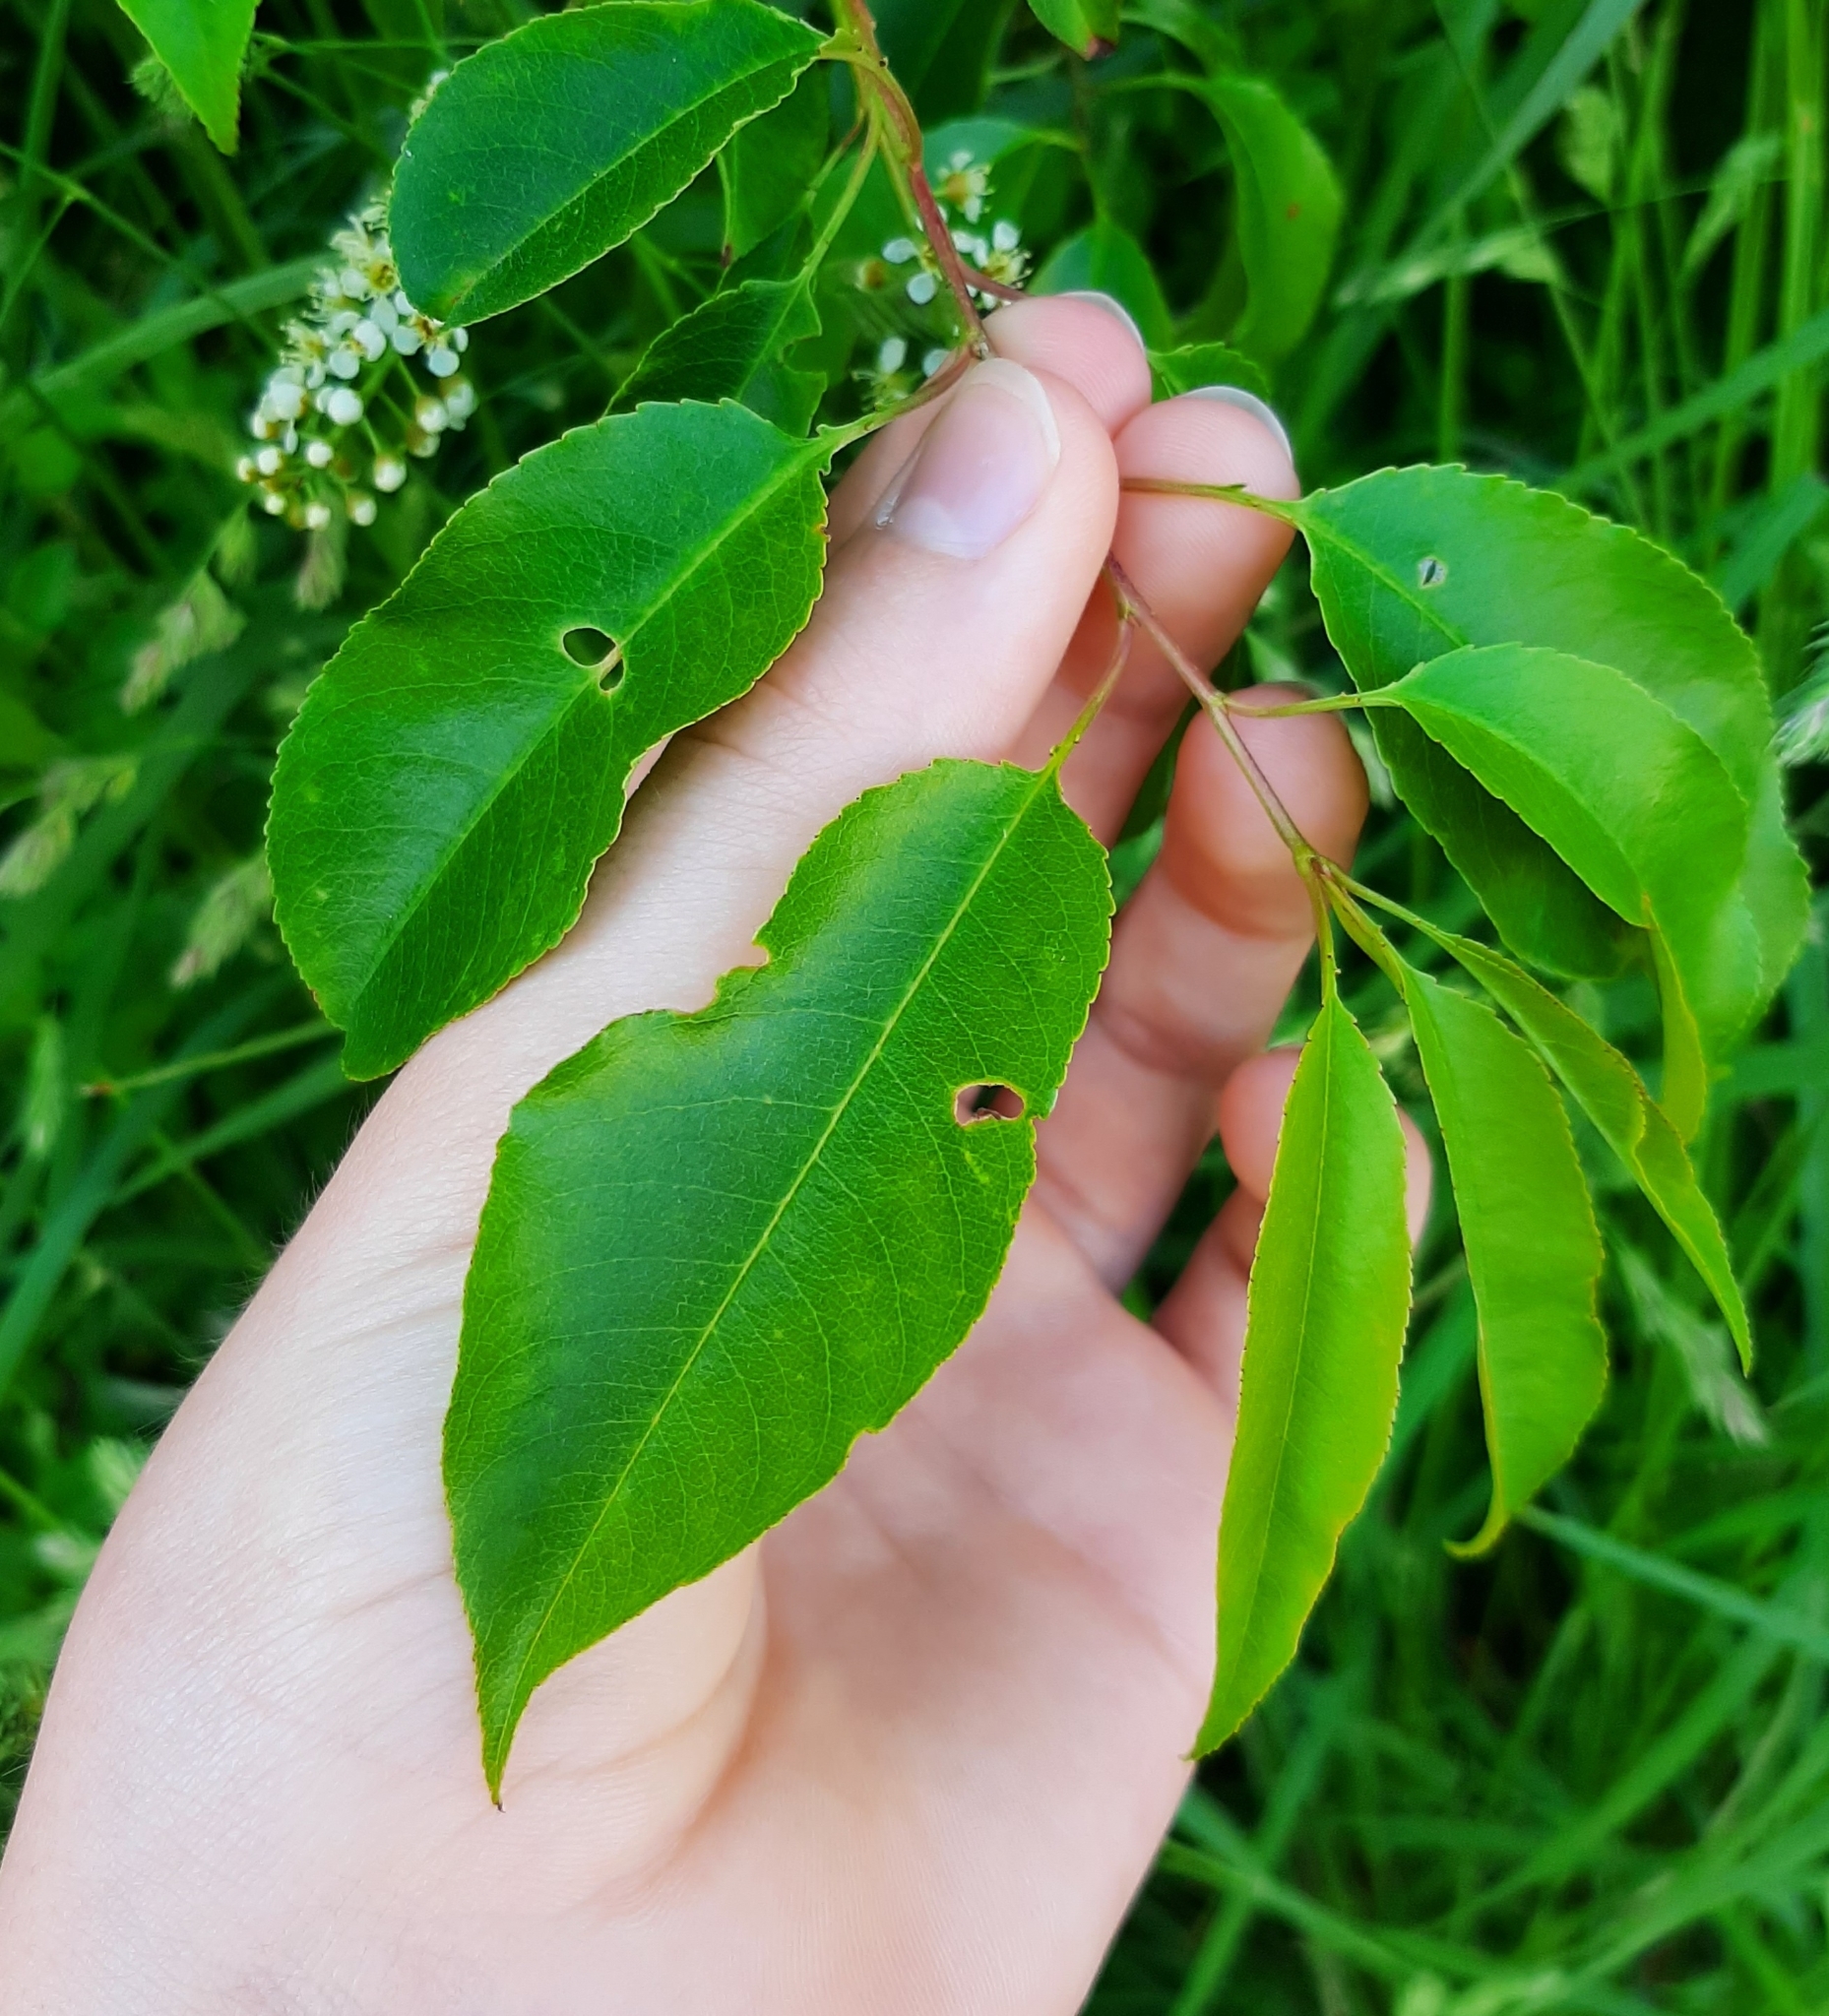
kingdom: Plantae
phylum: Tracheophyta
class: Magnoliopsida
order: Rosales
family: Rosaceae
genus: Prunus
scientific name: Prunus serotina
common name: Black cherry
